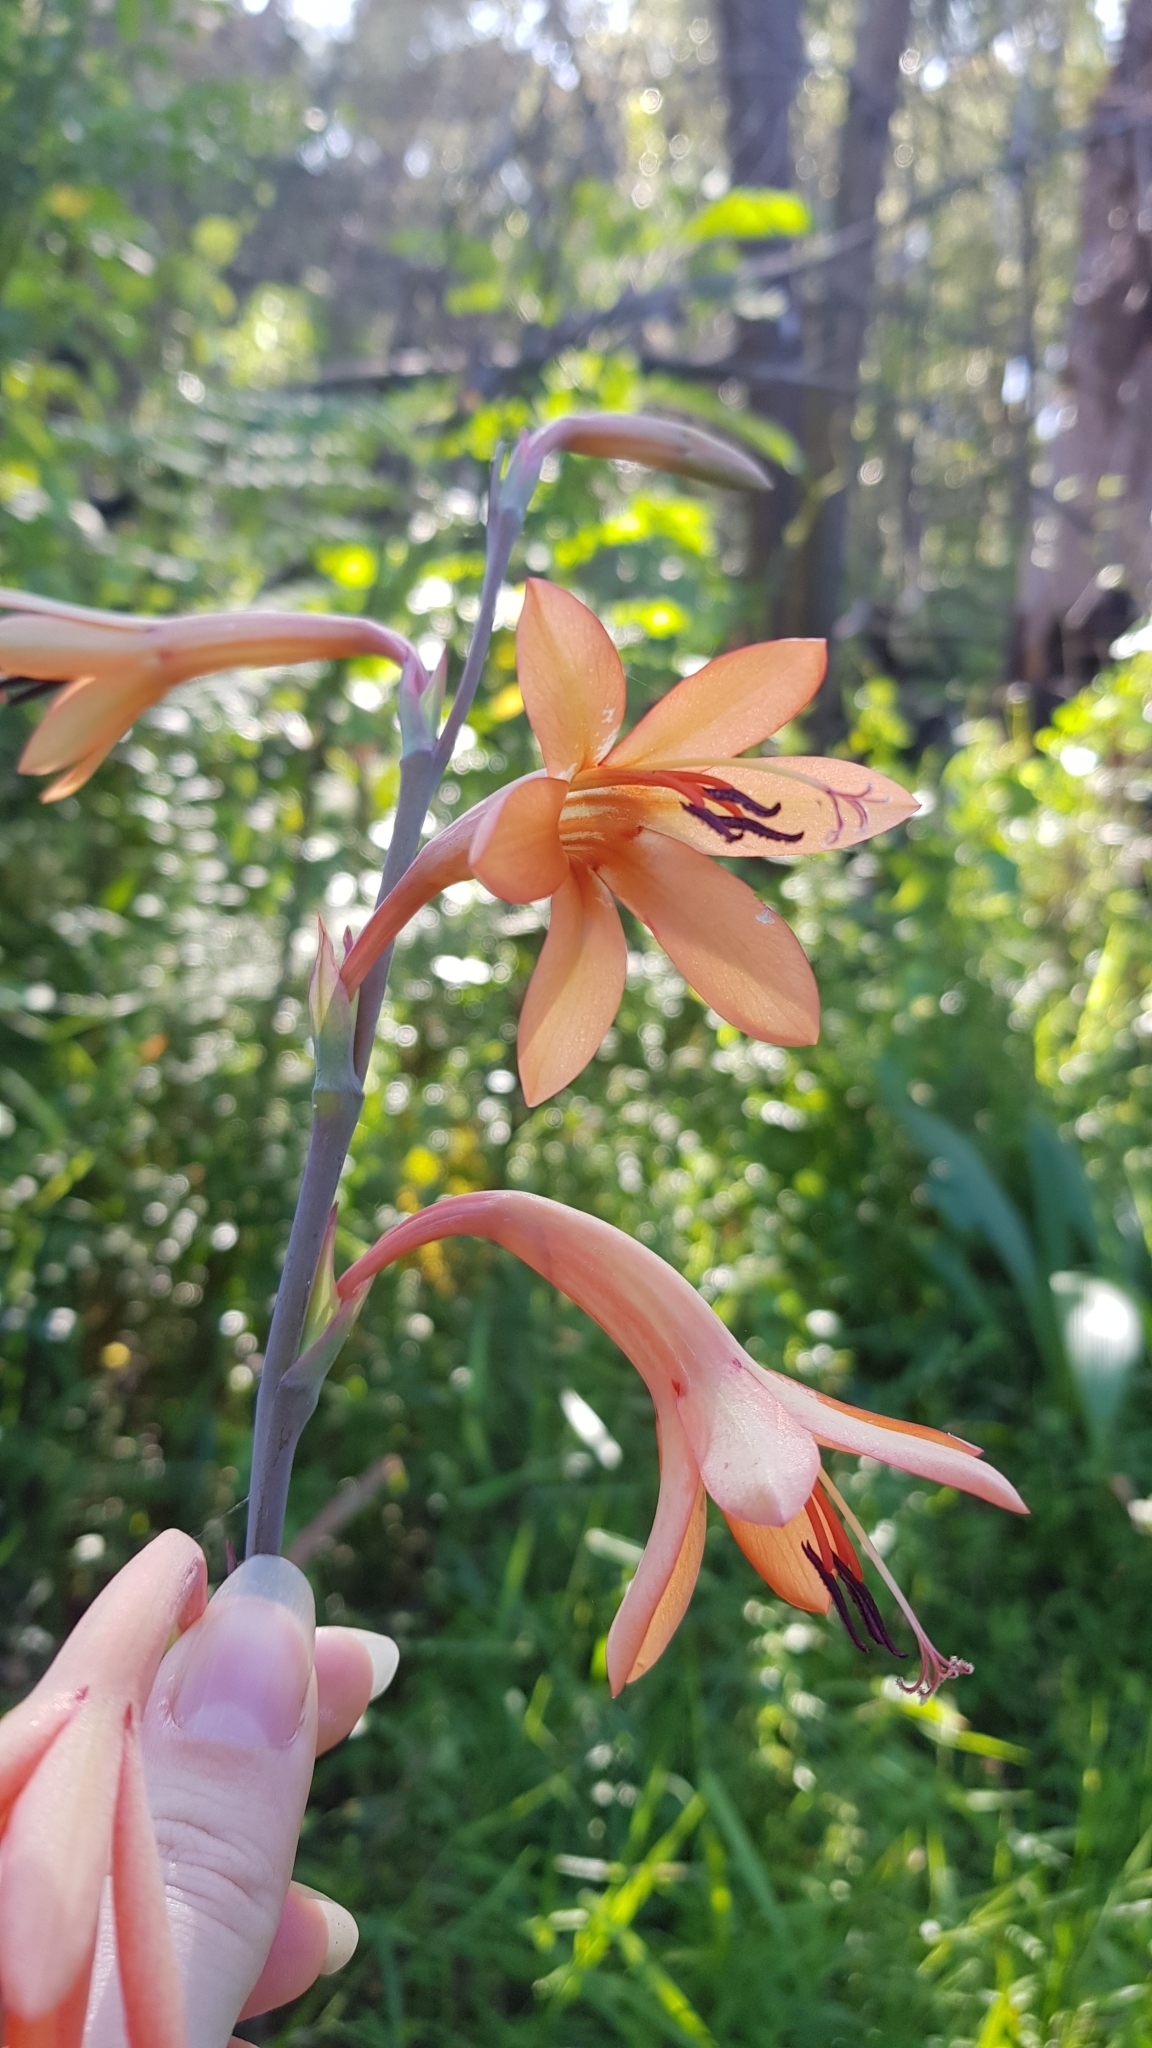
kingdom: Plantae
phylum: Tracheophyta
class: Liliopsida
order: Asparagales
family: Iridaceae
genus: Watsonia
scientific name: Watsonia meriana
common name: Bulbil bugle-lily
